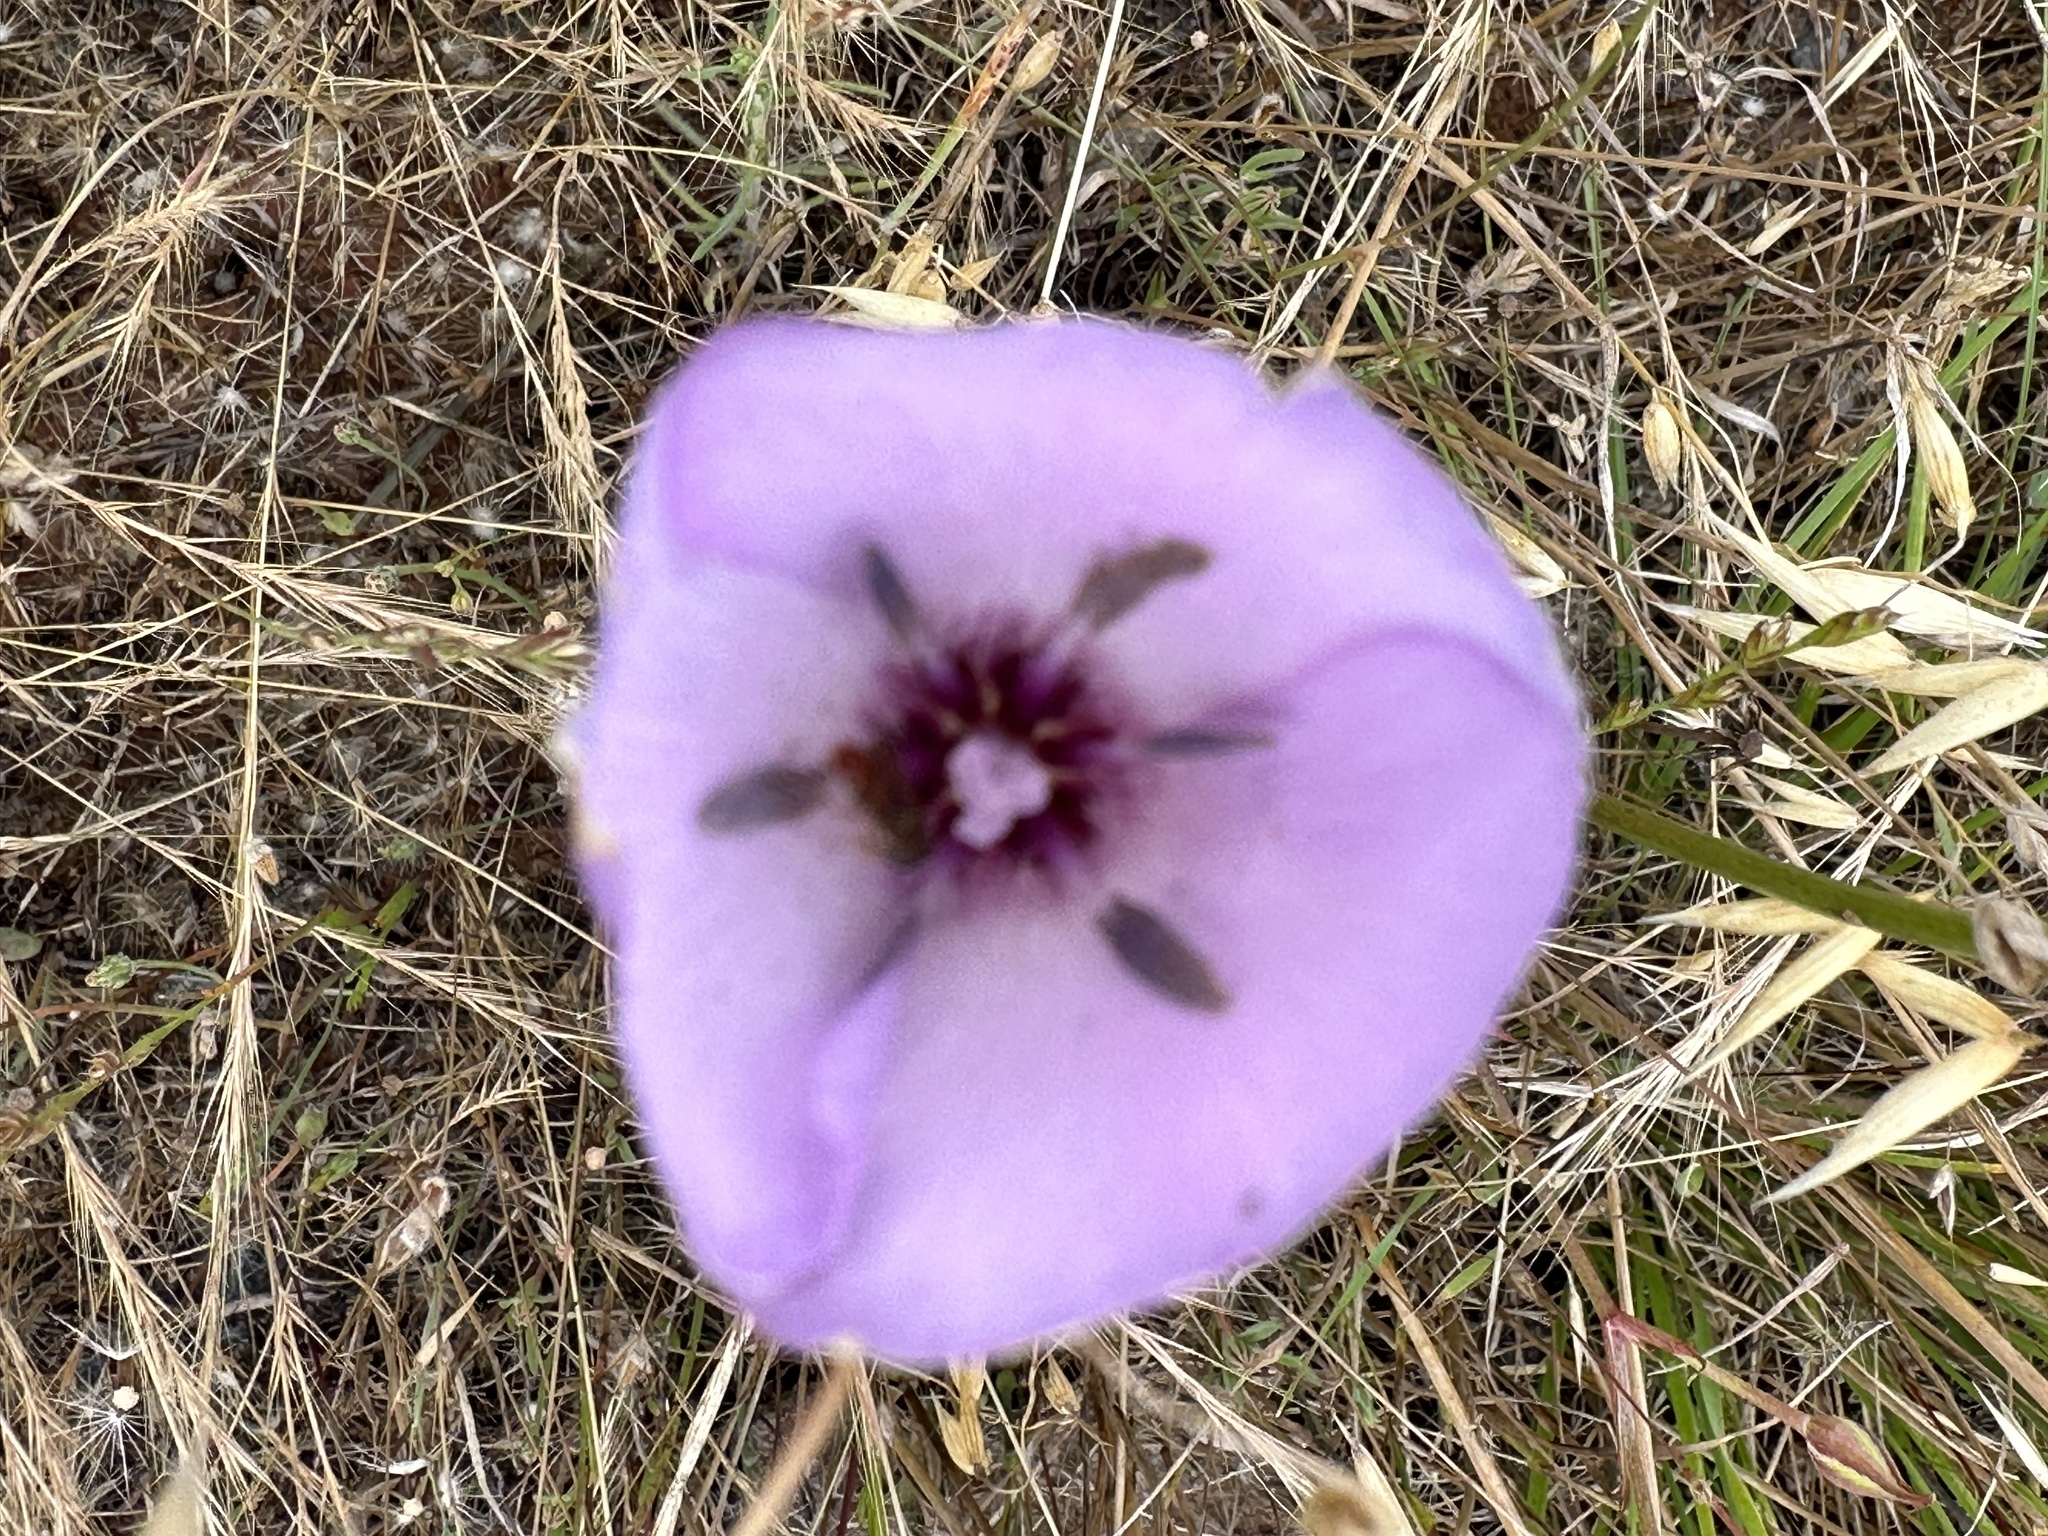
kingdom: Plantae
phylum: Tracheophyta
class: Liliopsida
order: Liliales
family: Liliaceae
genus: Calochortus
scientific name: Calochortus splendens
